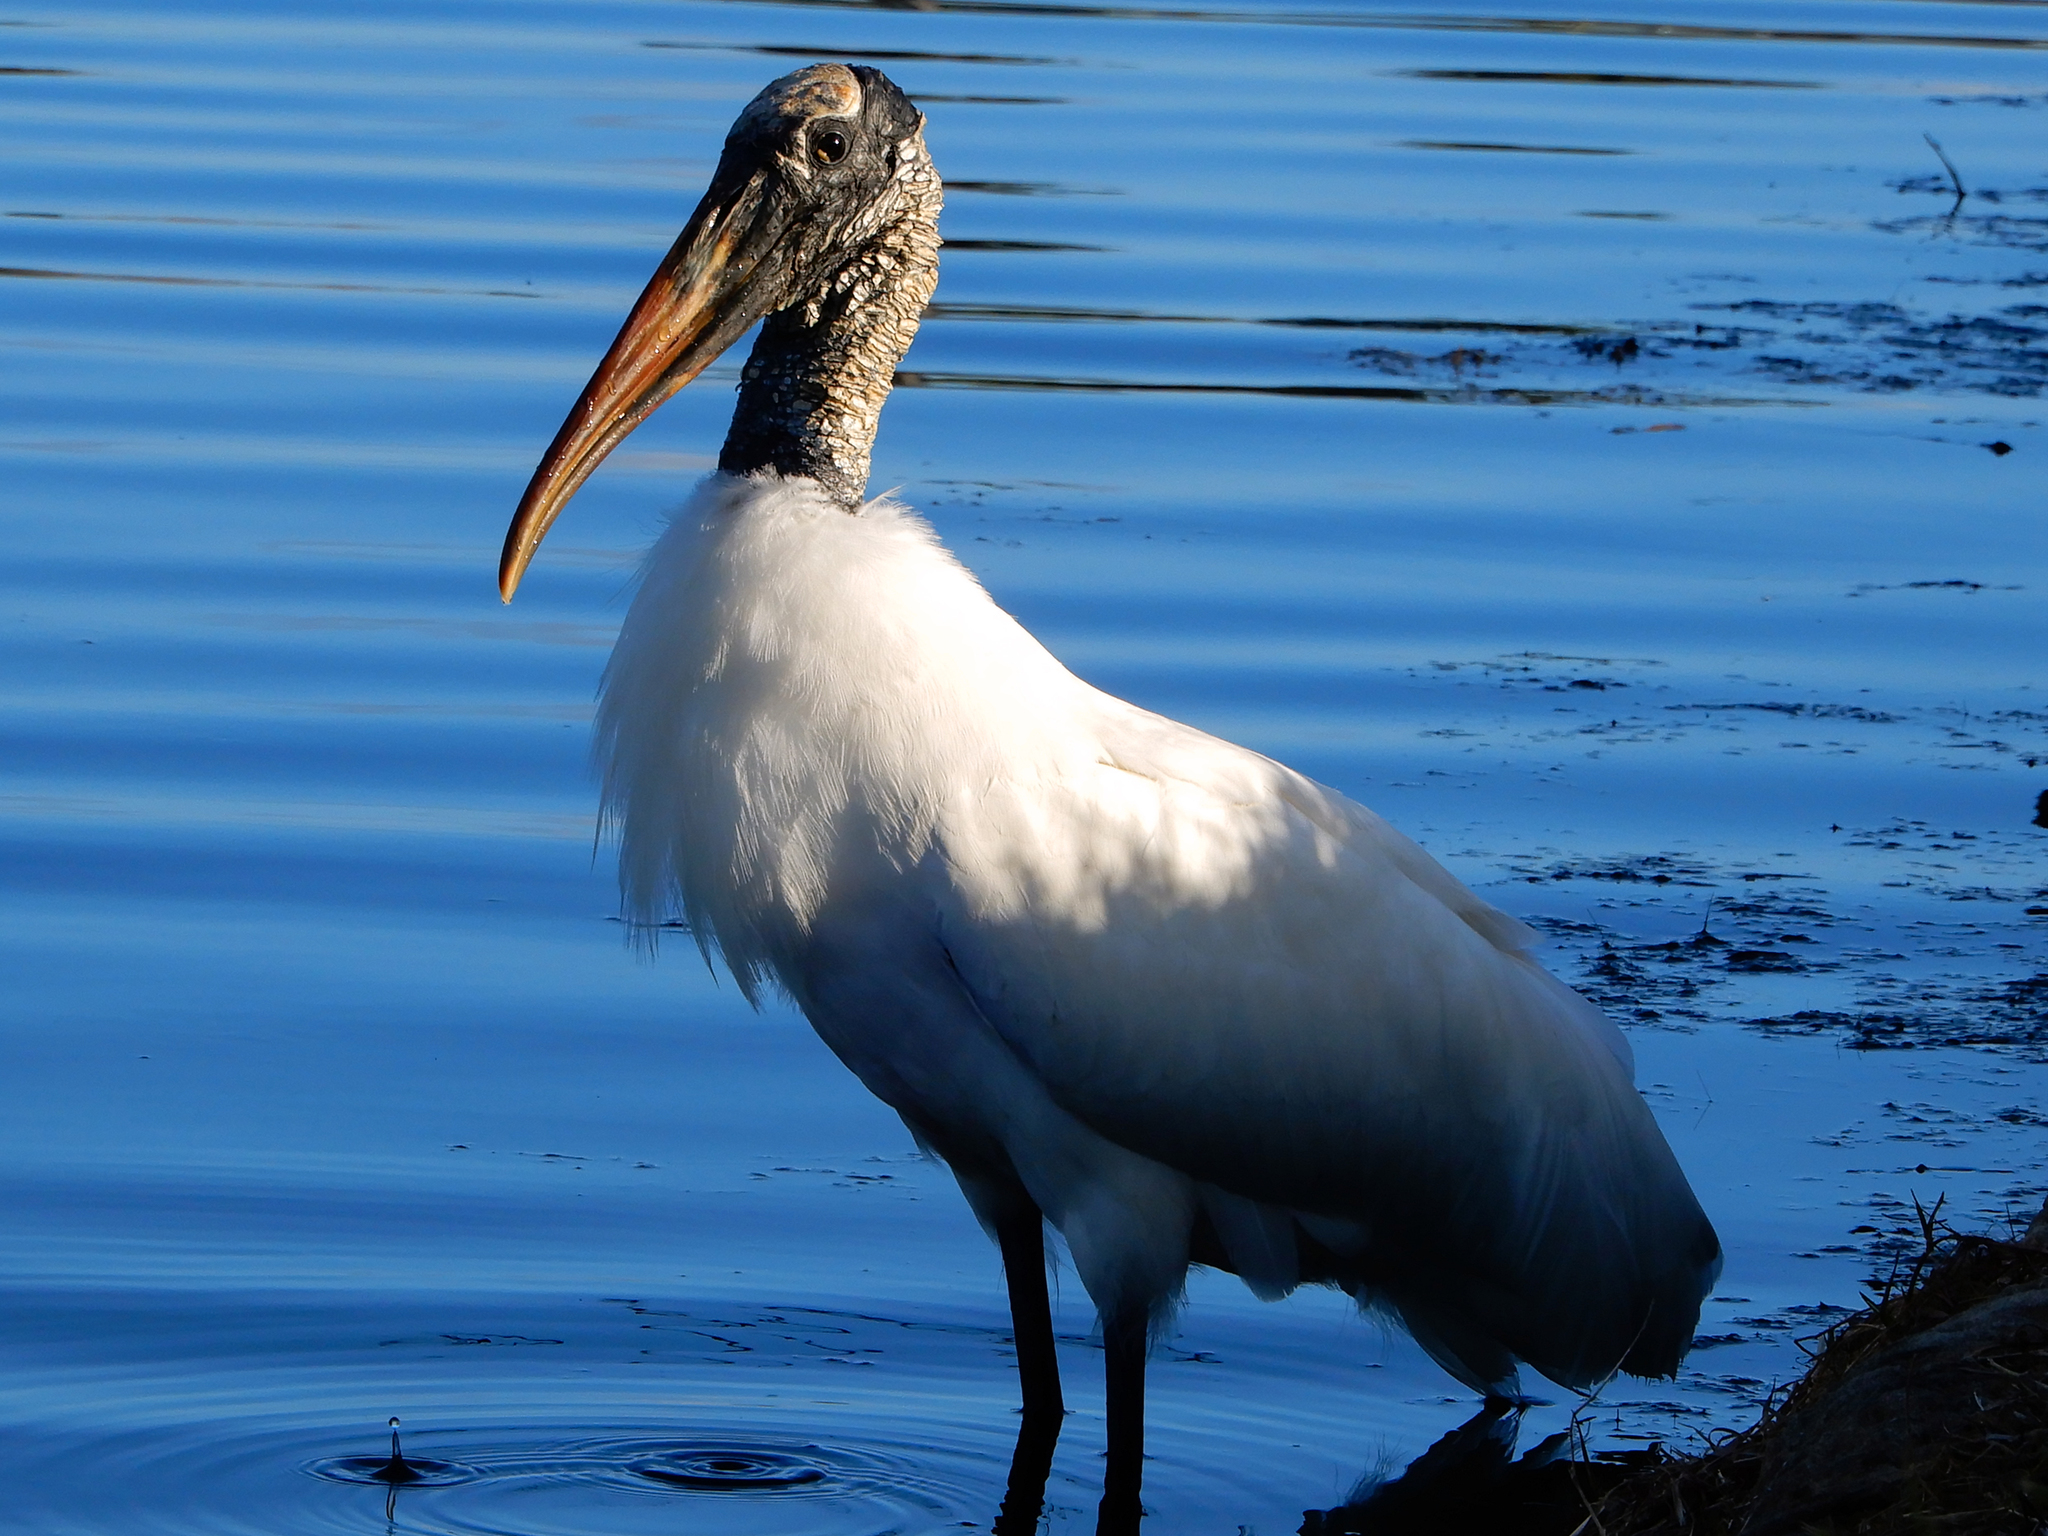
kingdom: Animalia
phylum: Chordata
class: Aves
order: Ciconiiformes
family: Ciconiidae
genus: Mycteria
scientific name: Mycteria americana
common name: Wood stork
